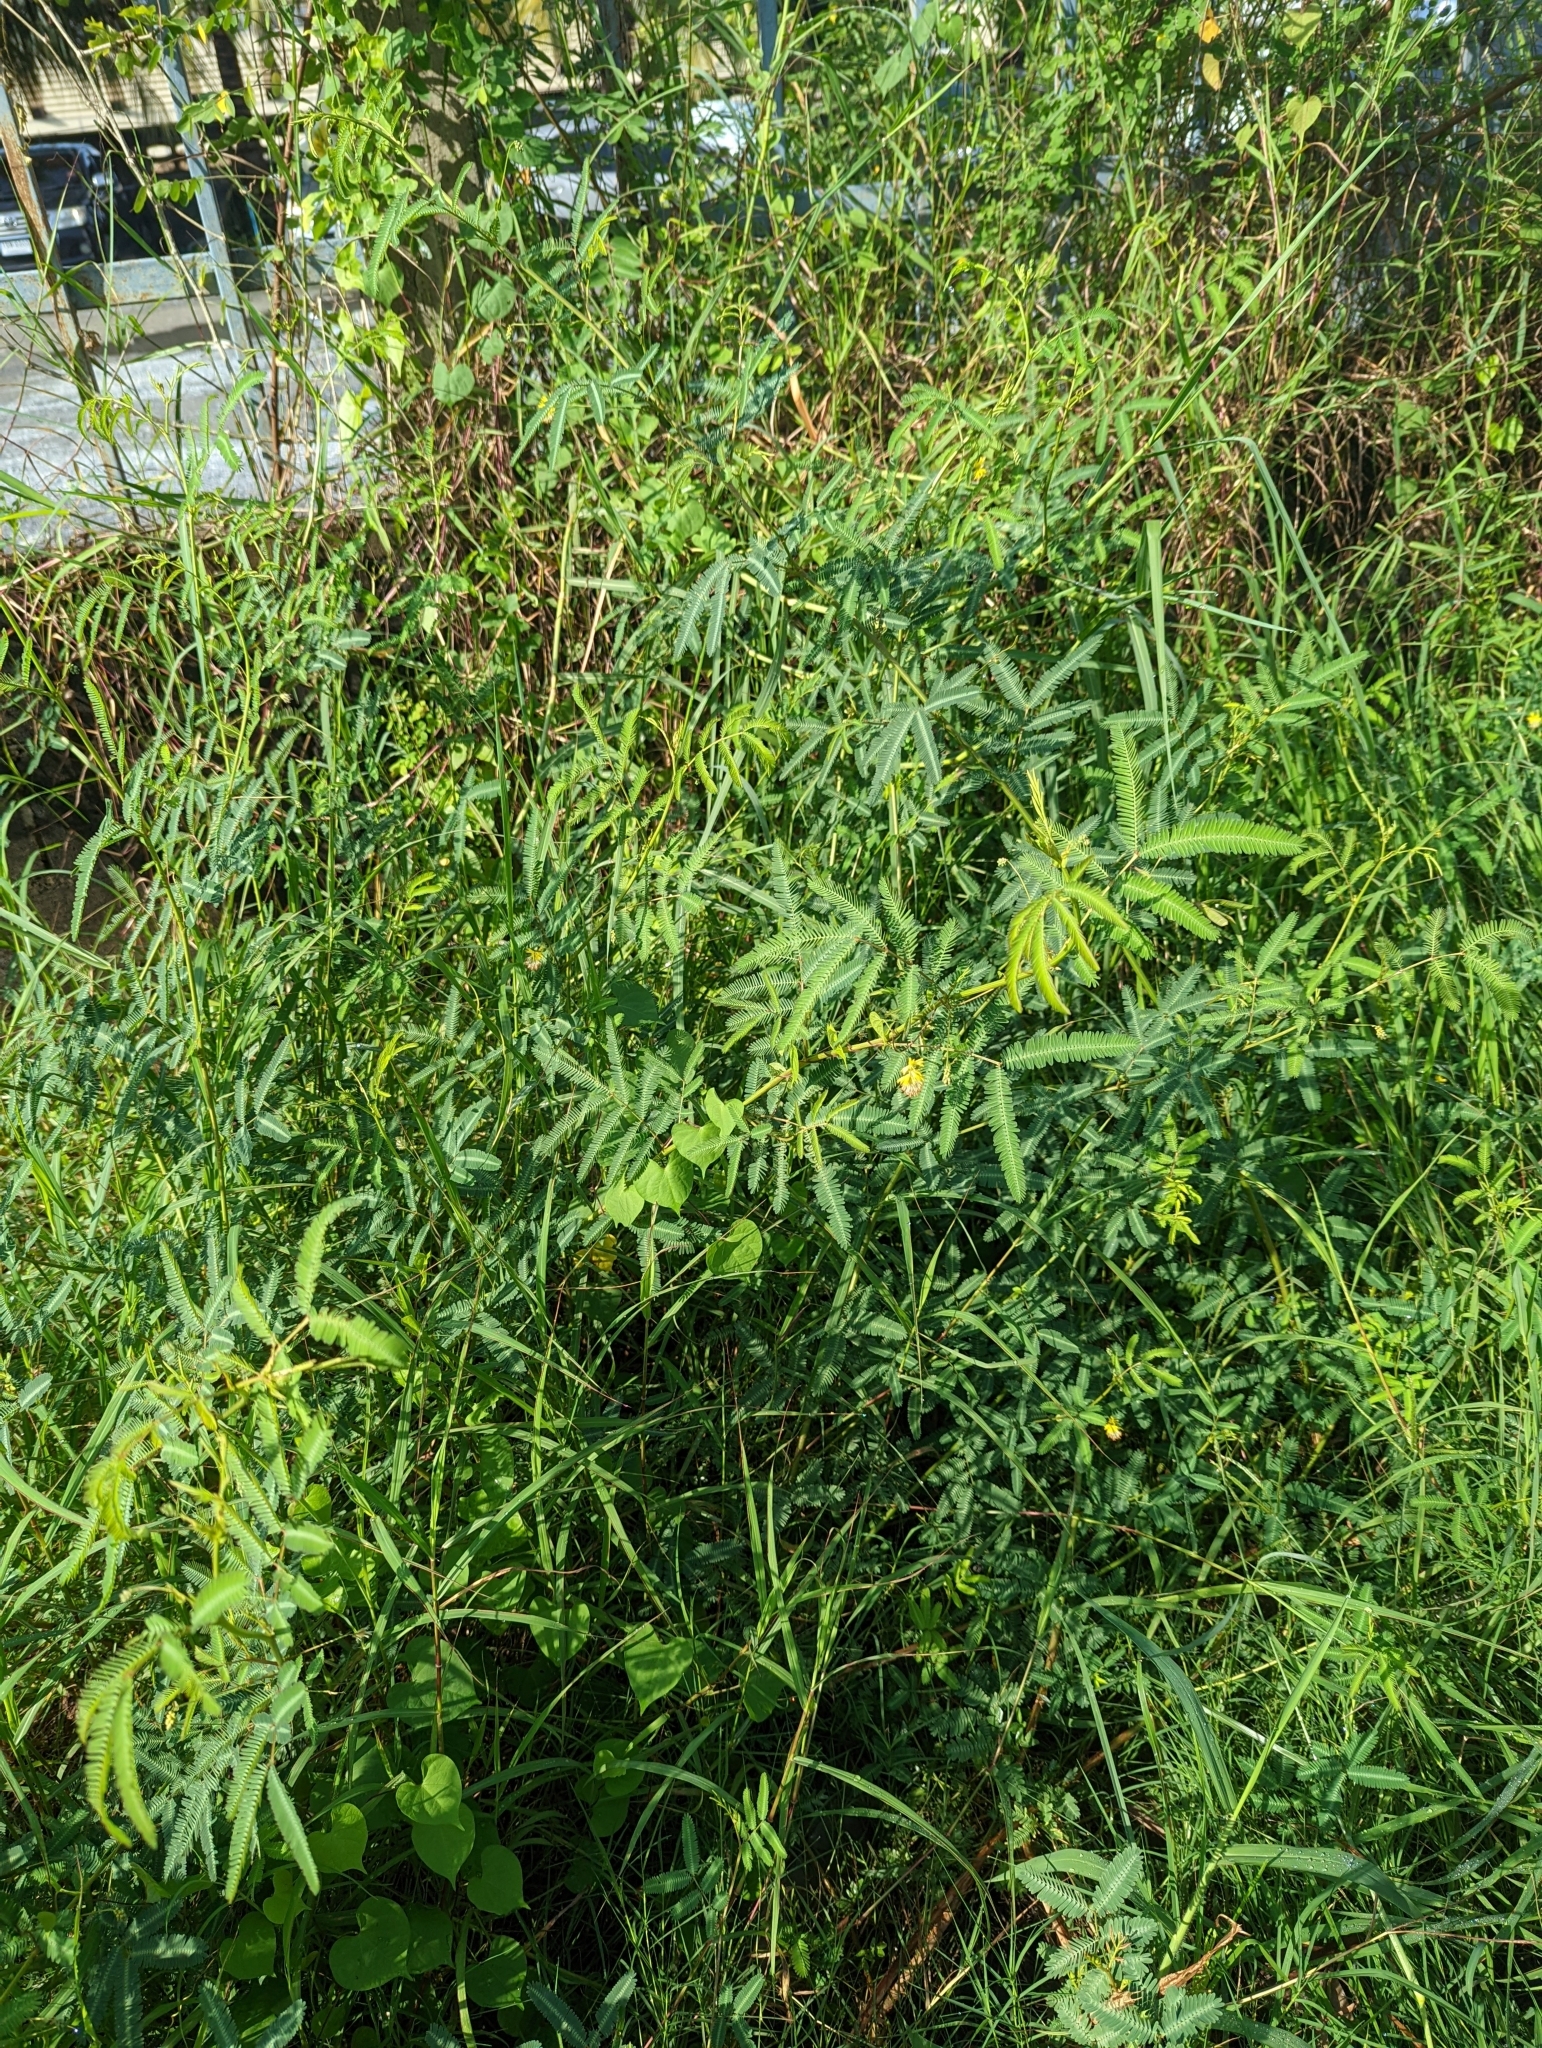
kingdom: Plantae
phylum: Tracheophyta
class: Magnoliopsida
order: Fabales
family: Fabaceae
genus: Neptunia
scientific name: Neptunia plena
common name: Dead and awake
